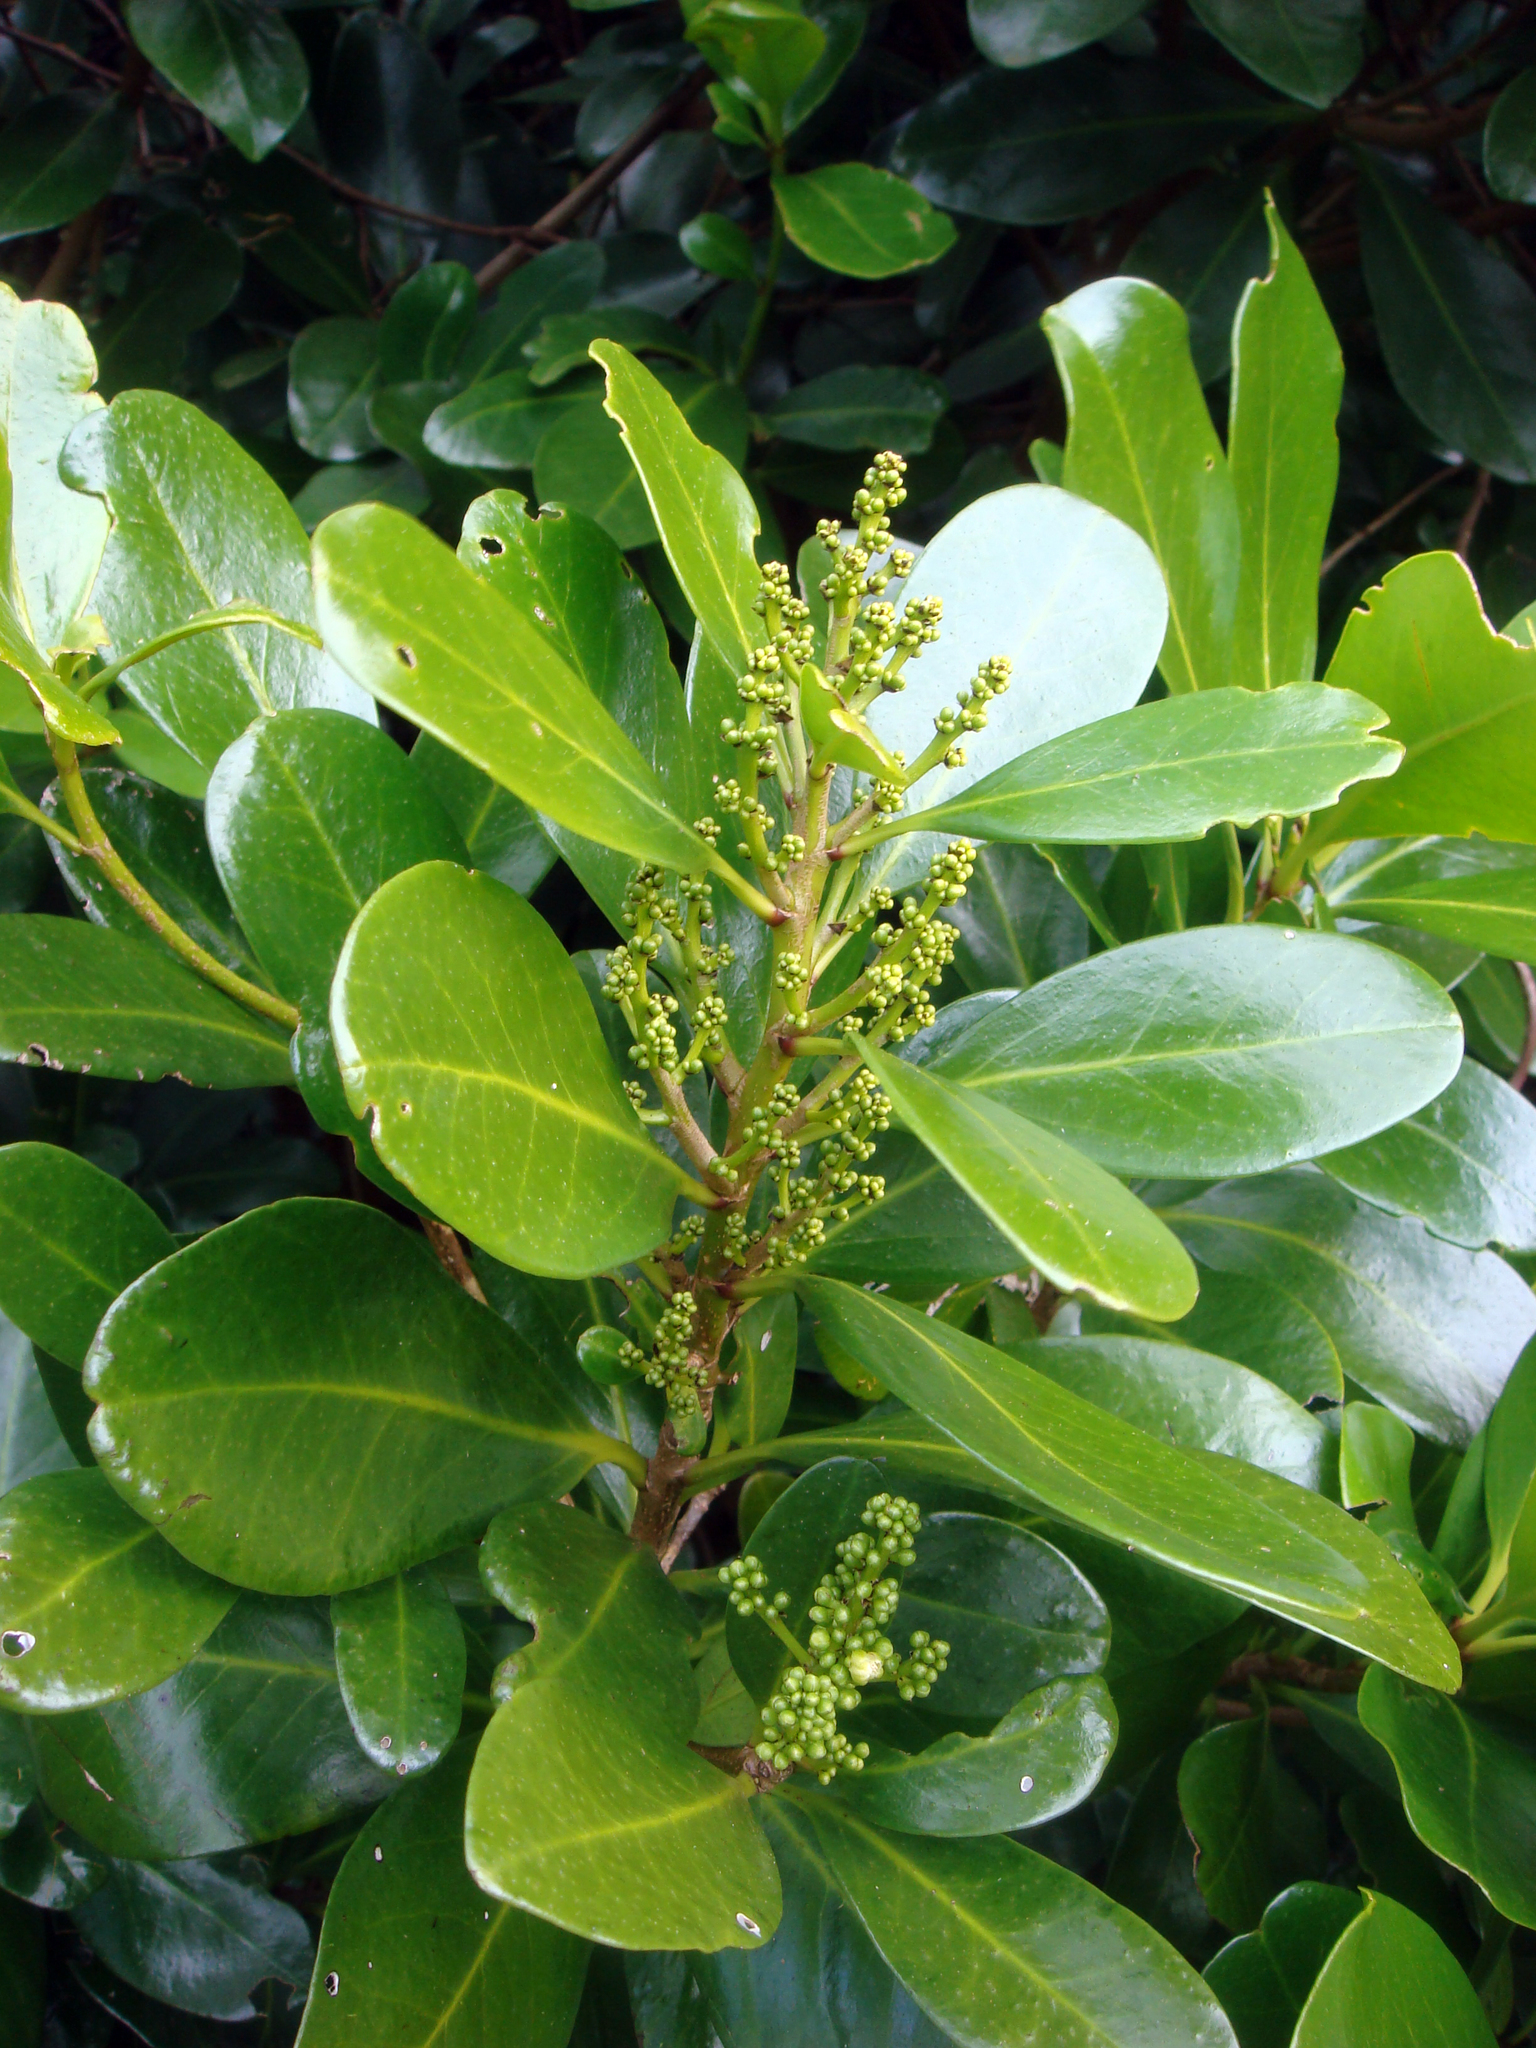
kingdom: Plantae
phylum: Tracheophyta
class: Magnoliopsida
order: Cucurbitales
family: Corynocarpaceae
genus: Corynocarpus
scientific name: Corynocarpus laevigatus
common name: New zealand laurel
